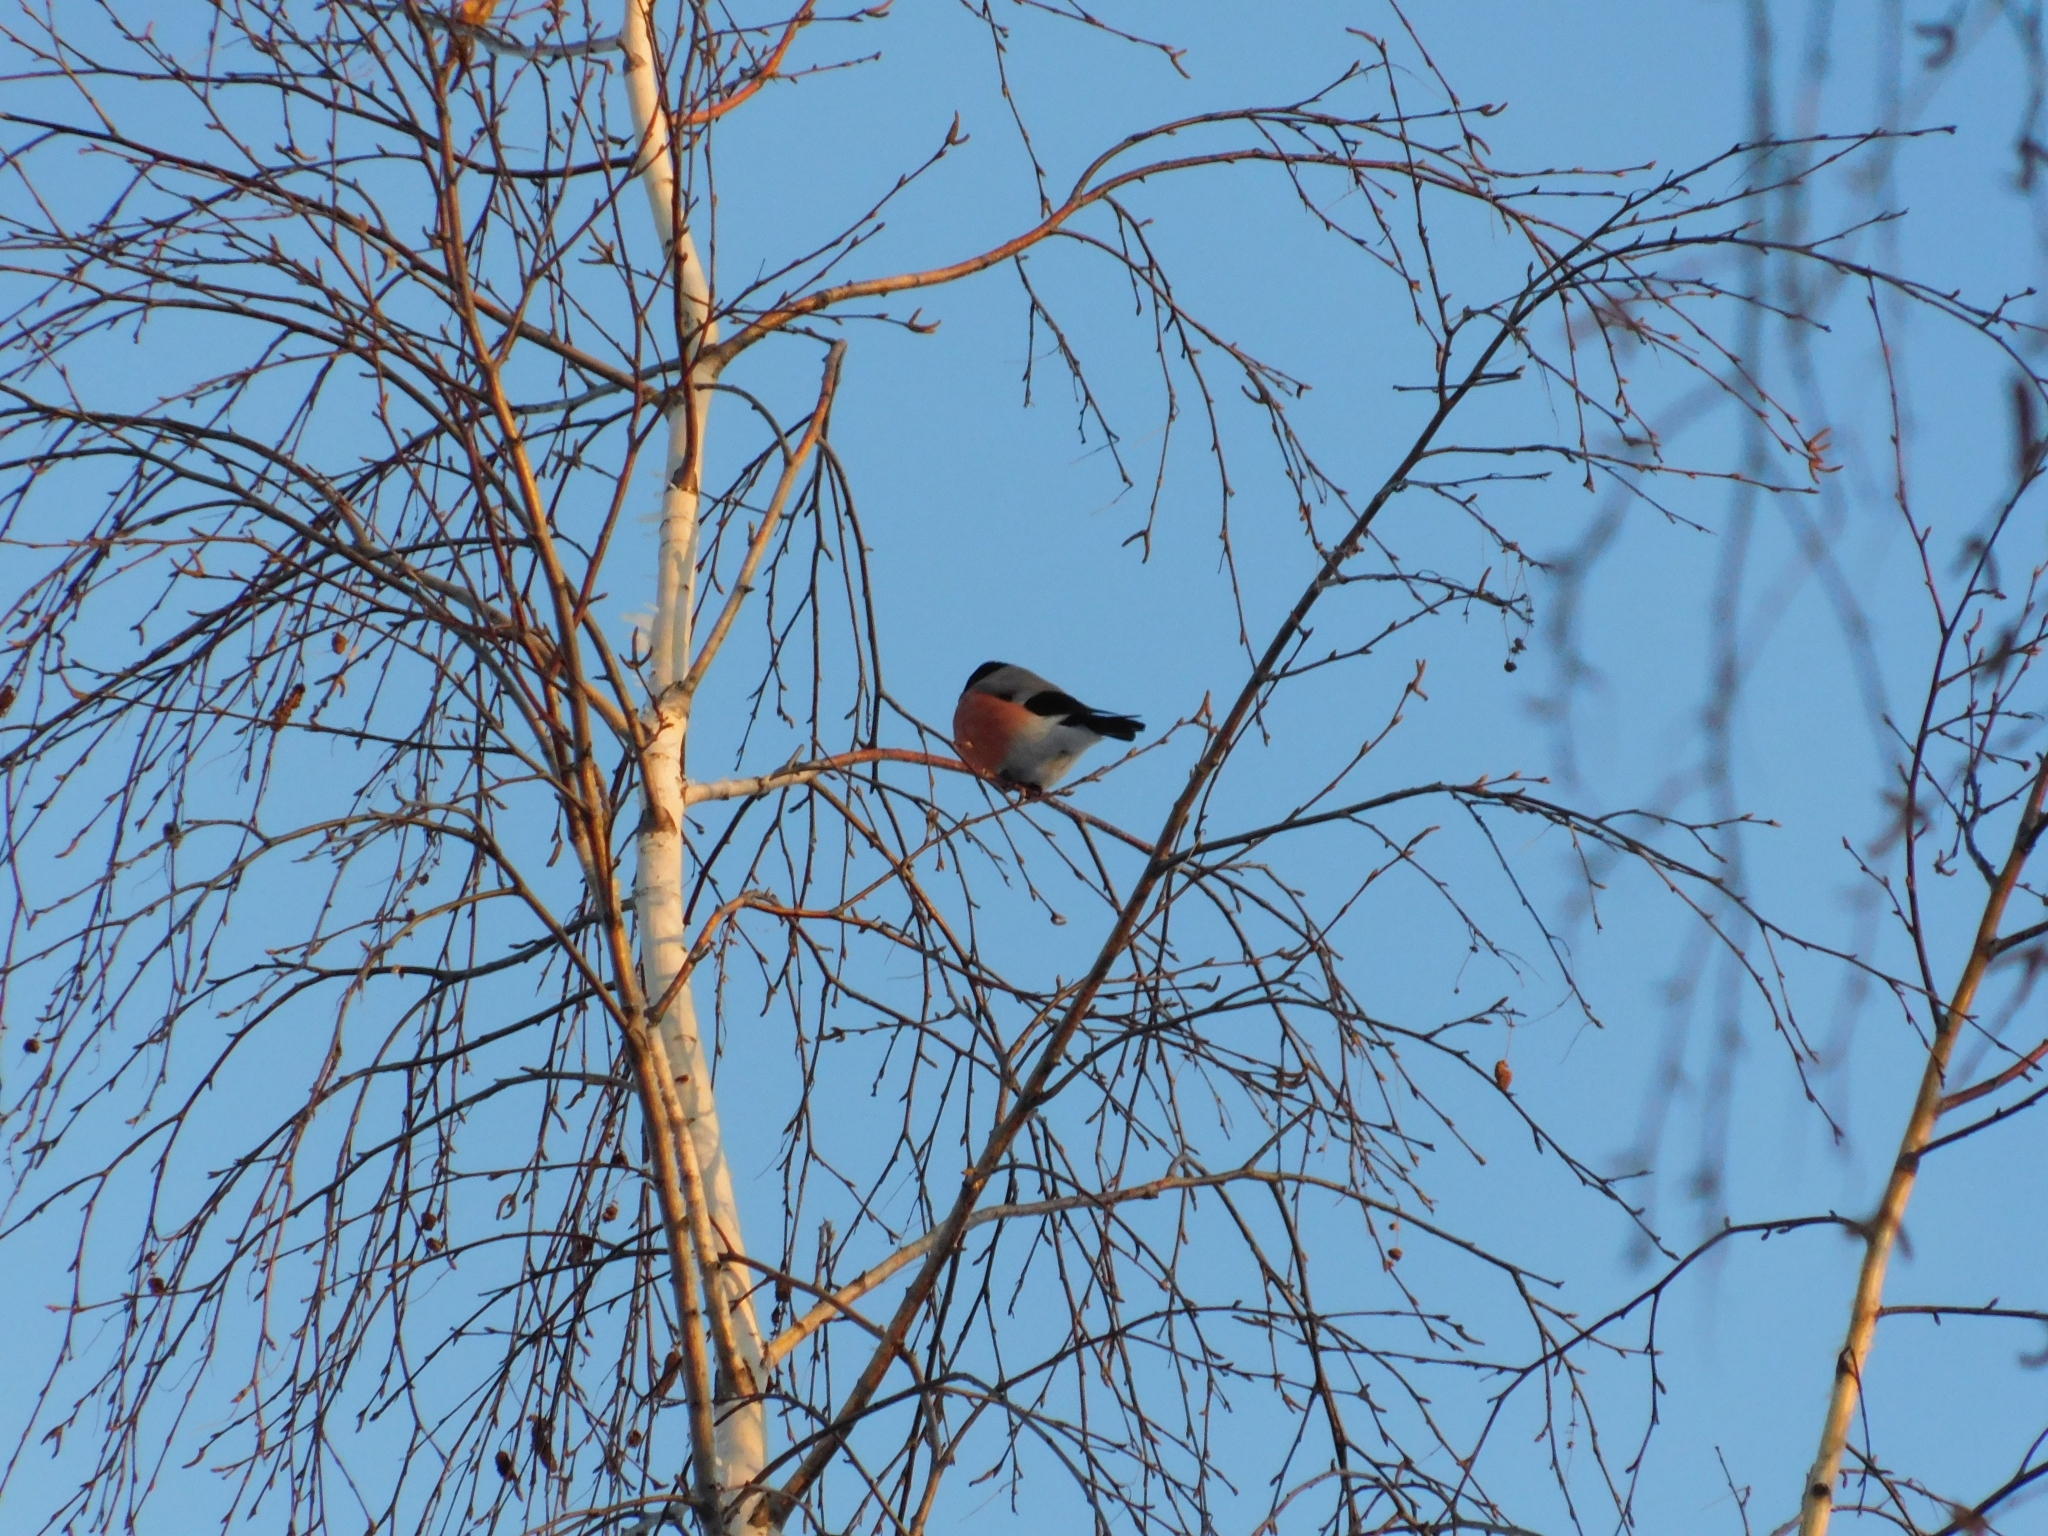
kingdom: Animalia
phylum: Chordata
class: Aves
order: Passeriformes
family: Fringillidae
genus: Pyrrhula
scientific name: Pyrrhula pyrrhula
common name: Eurasian bullfinch
